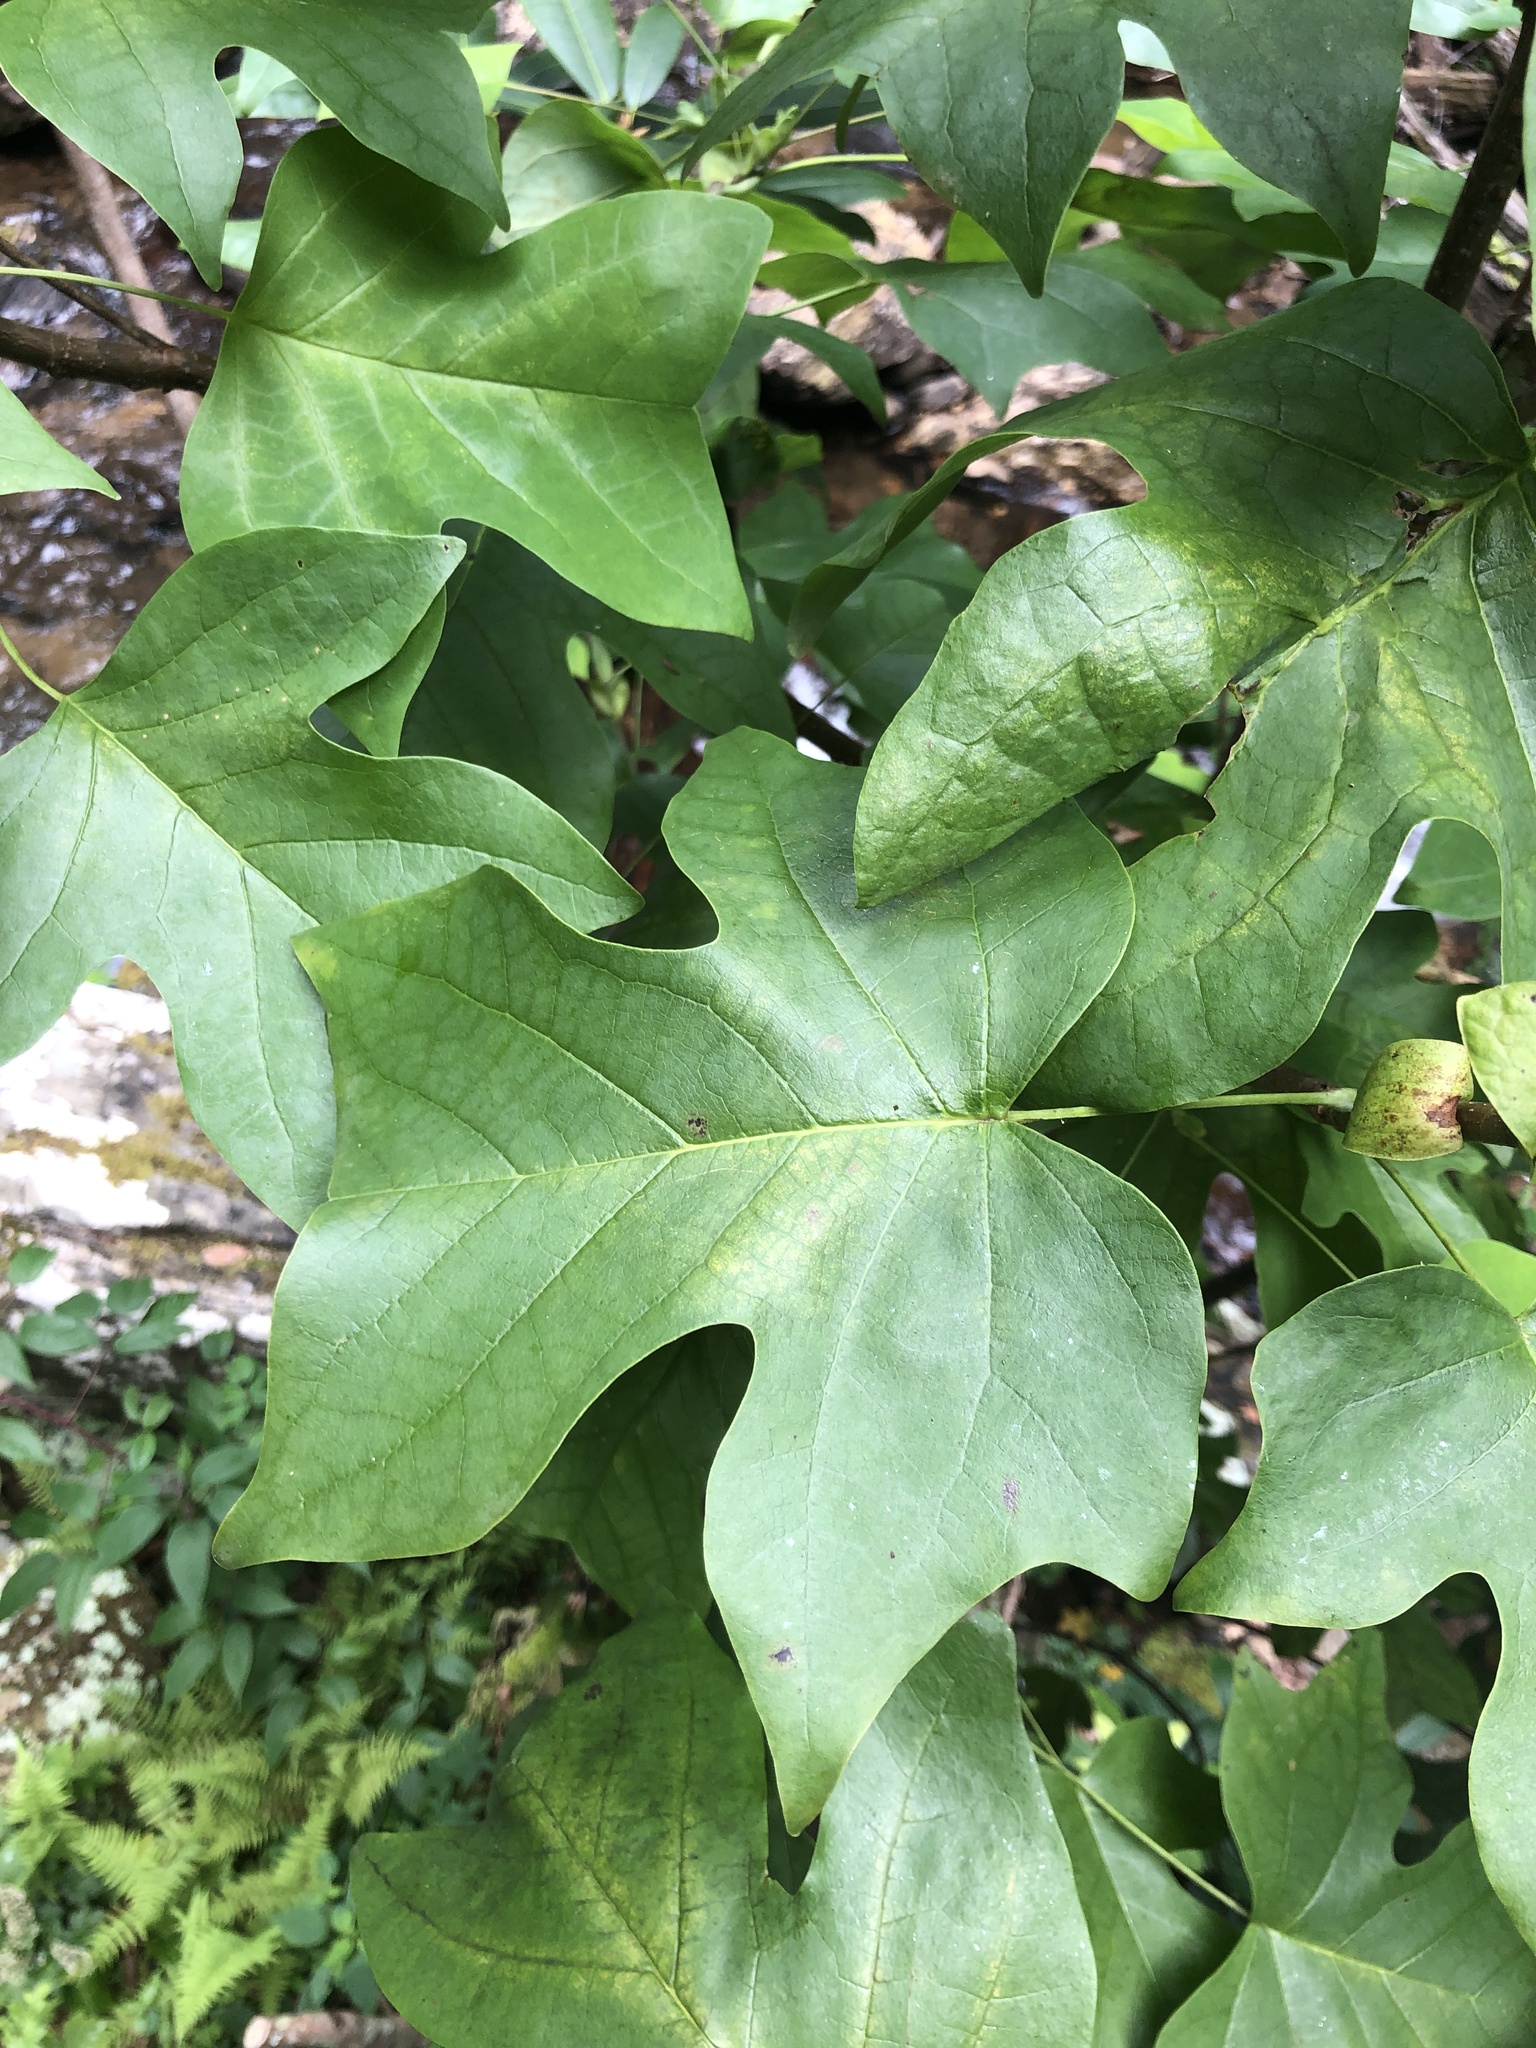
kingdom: Plantae
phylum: Tracheophyta
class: Magnoliopsida
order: Magnoliales
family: Magnoliaceae
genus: Liriodendron
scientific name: Liriodendron tulipifera
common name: Tulip tree
